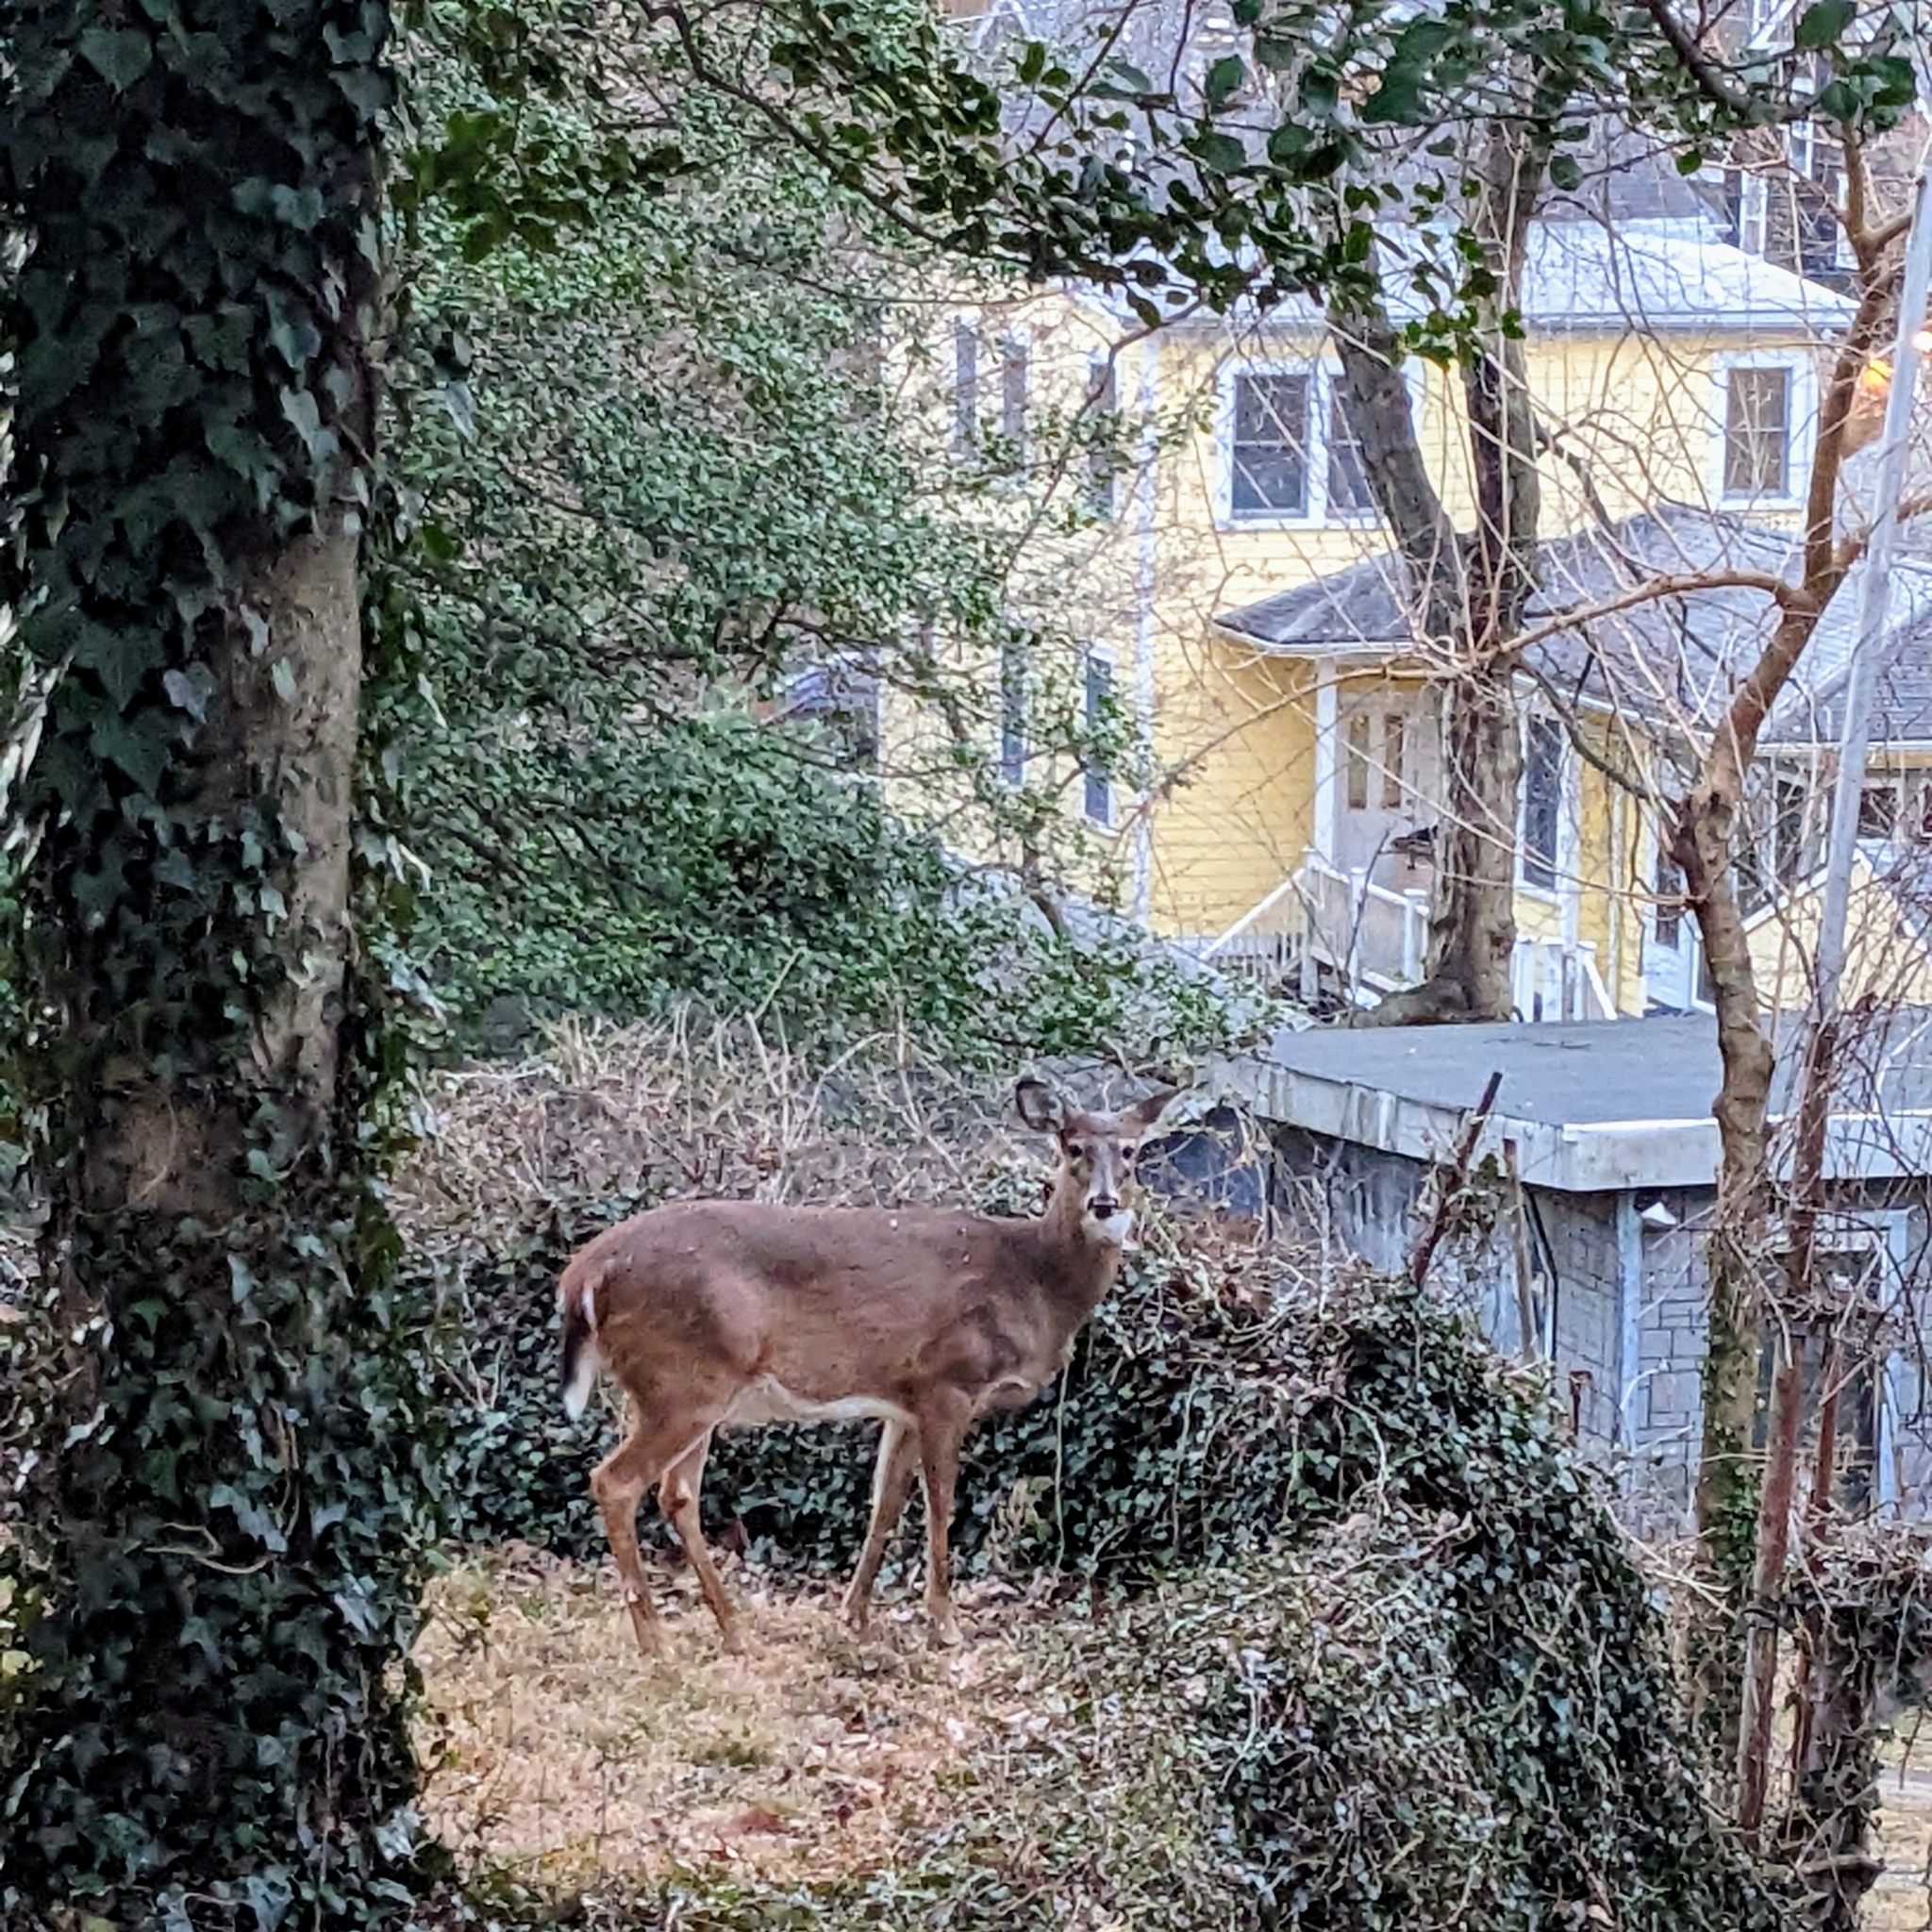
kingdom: Animalia
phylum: Chordata
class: Mammalia
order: Artiodactyla
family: Cervidae
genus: Odocoileus
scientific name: Odocoileus virginianus
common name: White-tailed deer
